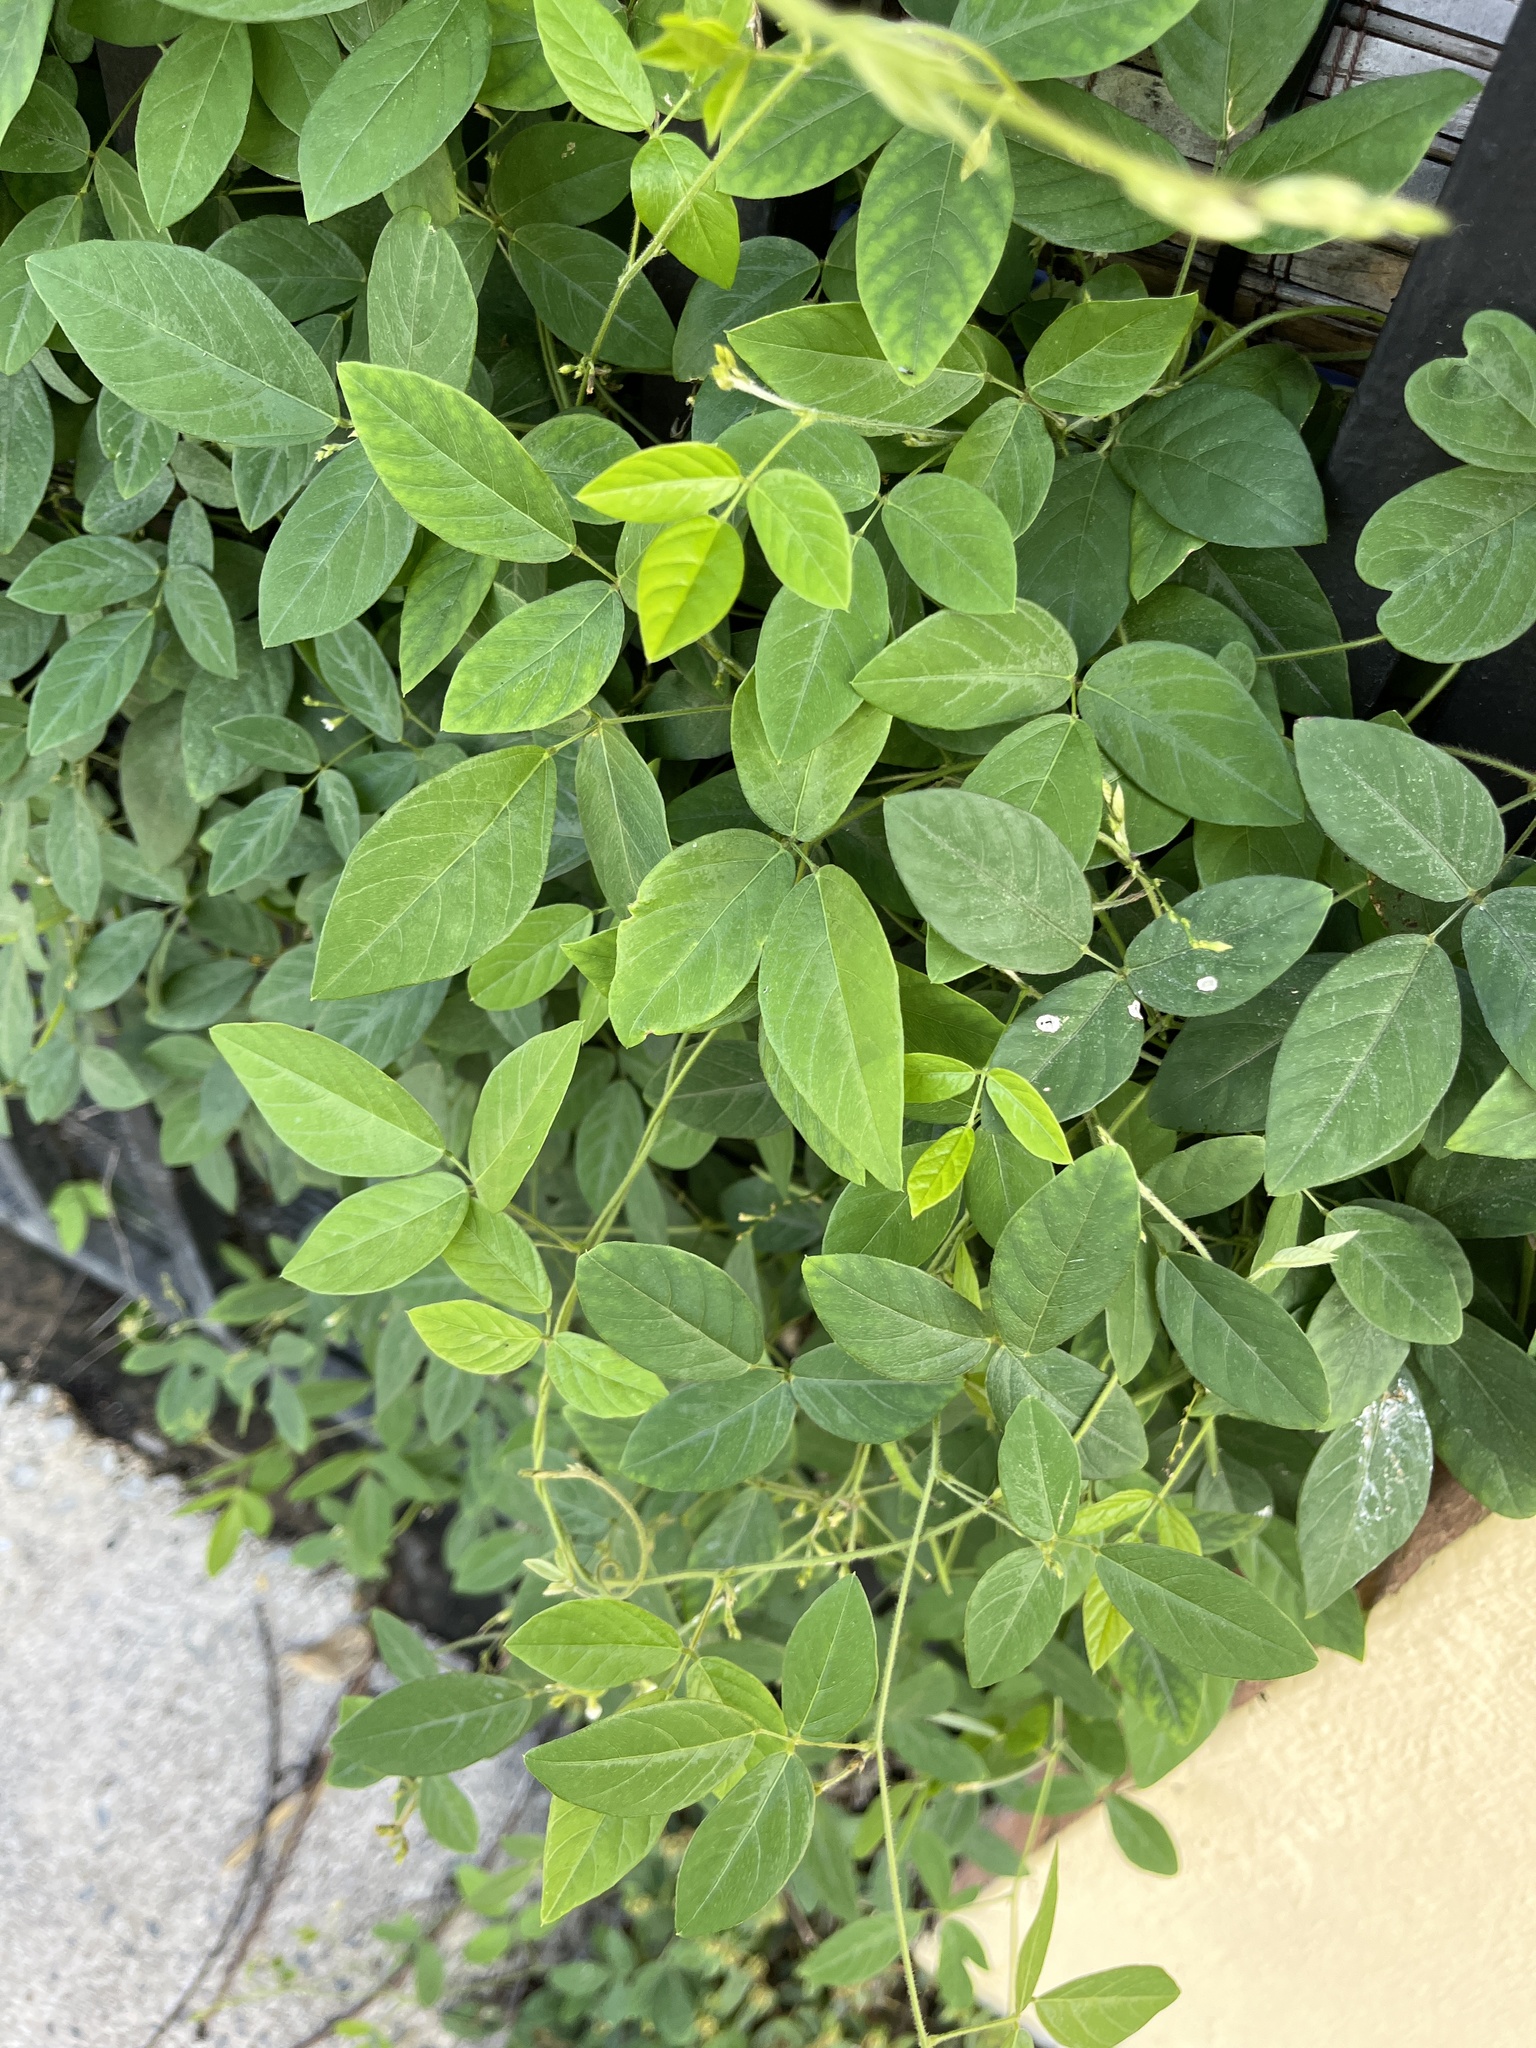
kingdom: Plantae
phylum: Tracheophyta
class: Magnoliopsida
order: Fabales
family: Fabaceae
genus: Desmodium
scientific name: Desmodium incanum
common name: Tickclover
